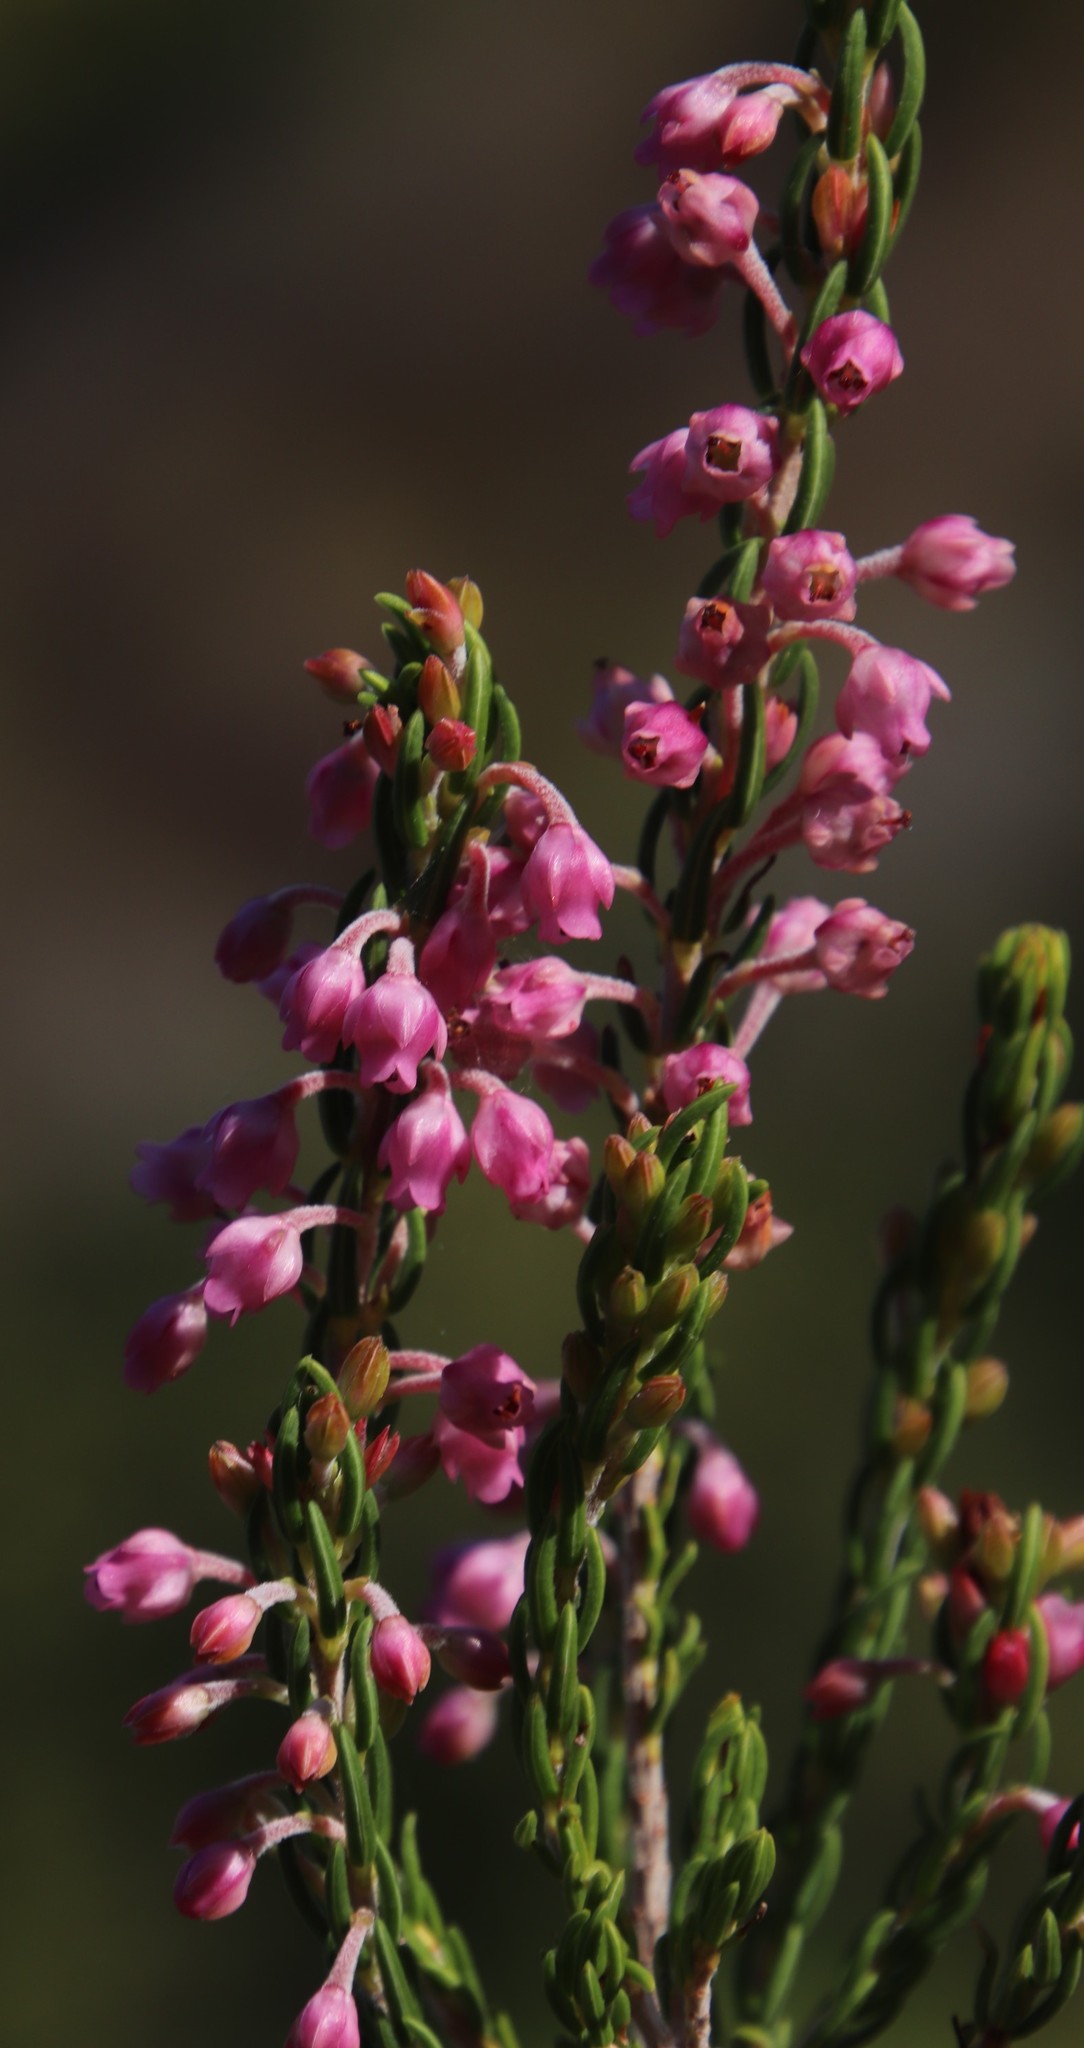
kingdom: Plantae
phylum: Tracheophyta
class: Magnoliopsida
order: Ericales
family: Ericaceae
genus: Erica
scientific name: Erica irregularis
